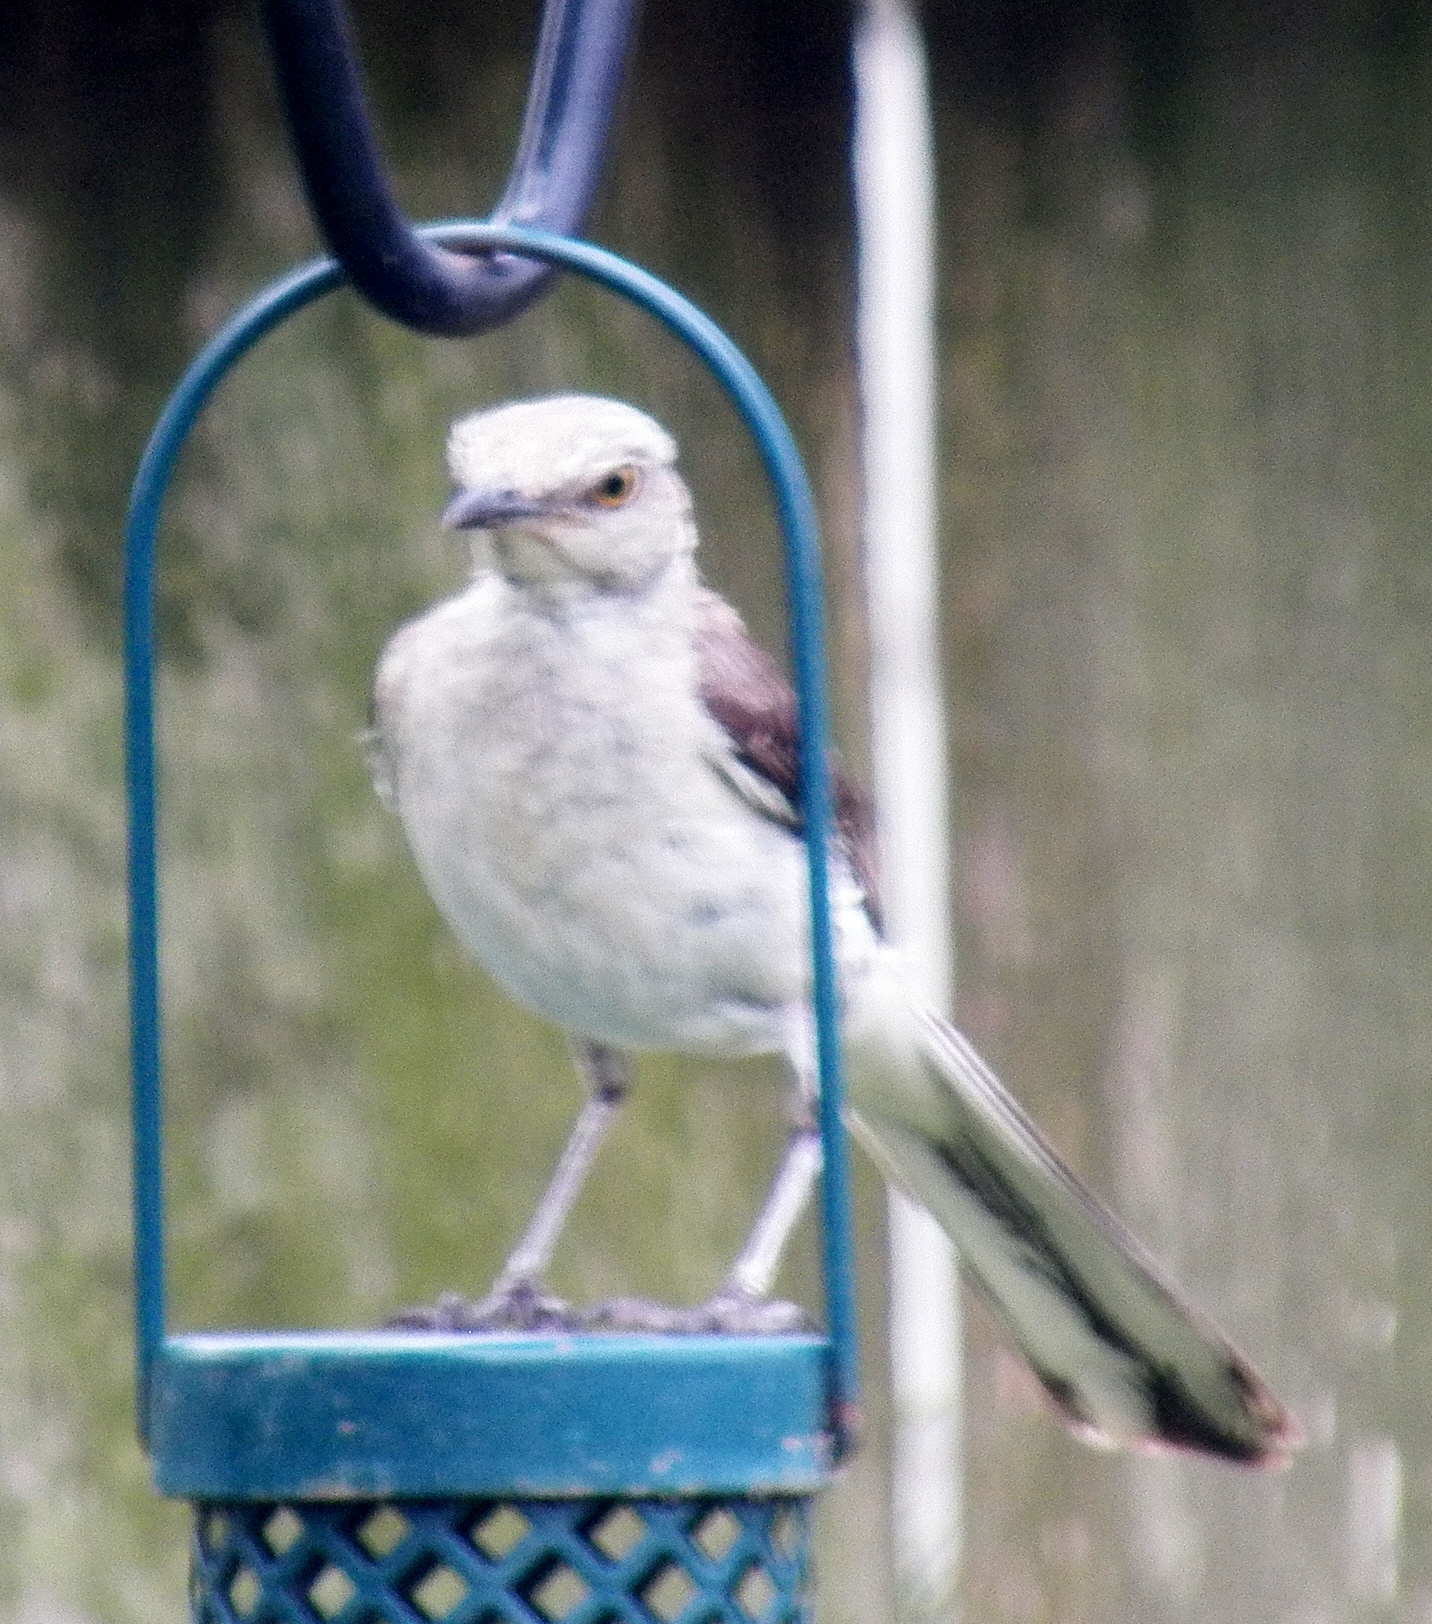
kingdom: Animalia
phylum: Chordata
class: Aves
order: Passeriformes
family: Mimidae
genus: Mimus
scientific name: Mimus polyglottos
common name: Northern mockingbird
